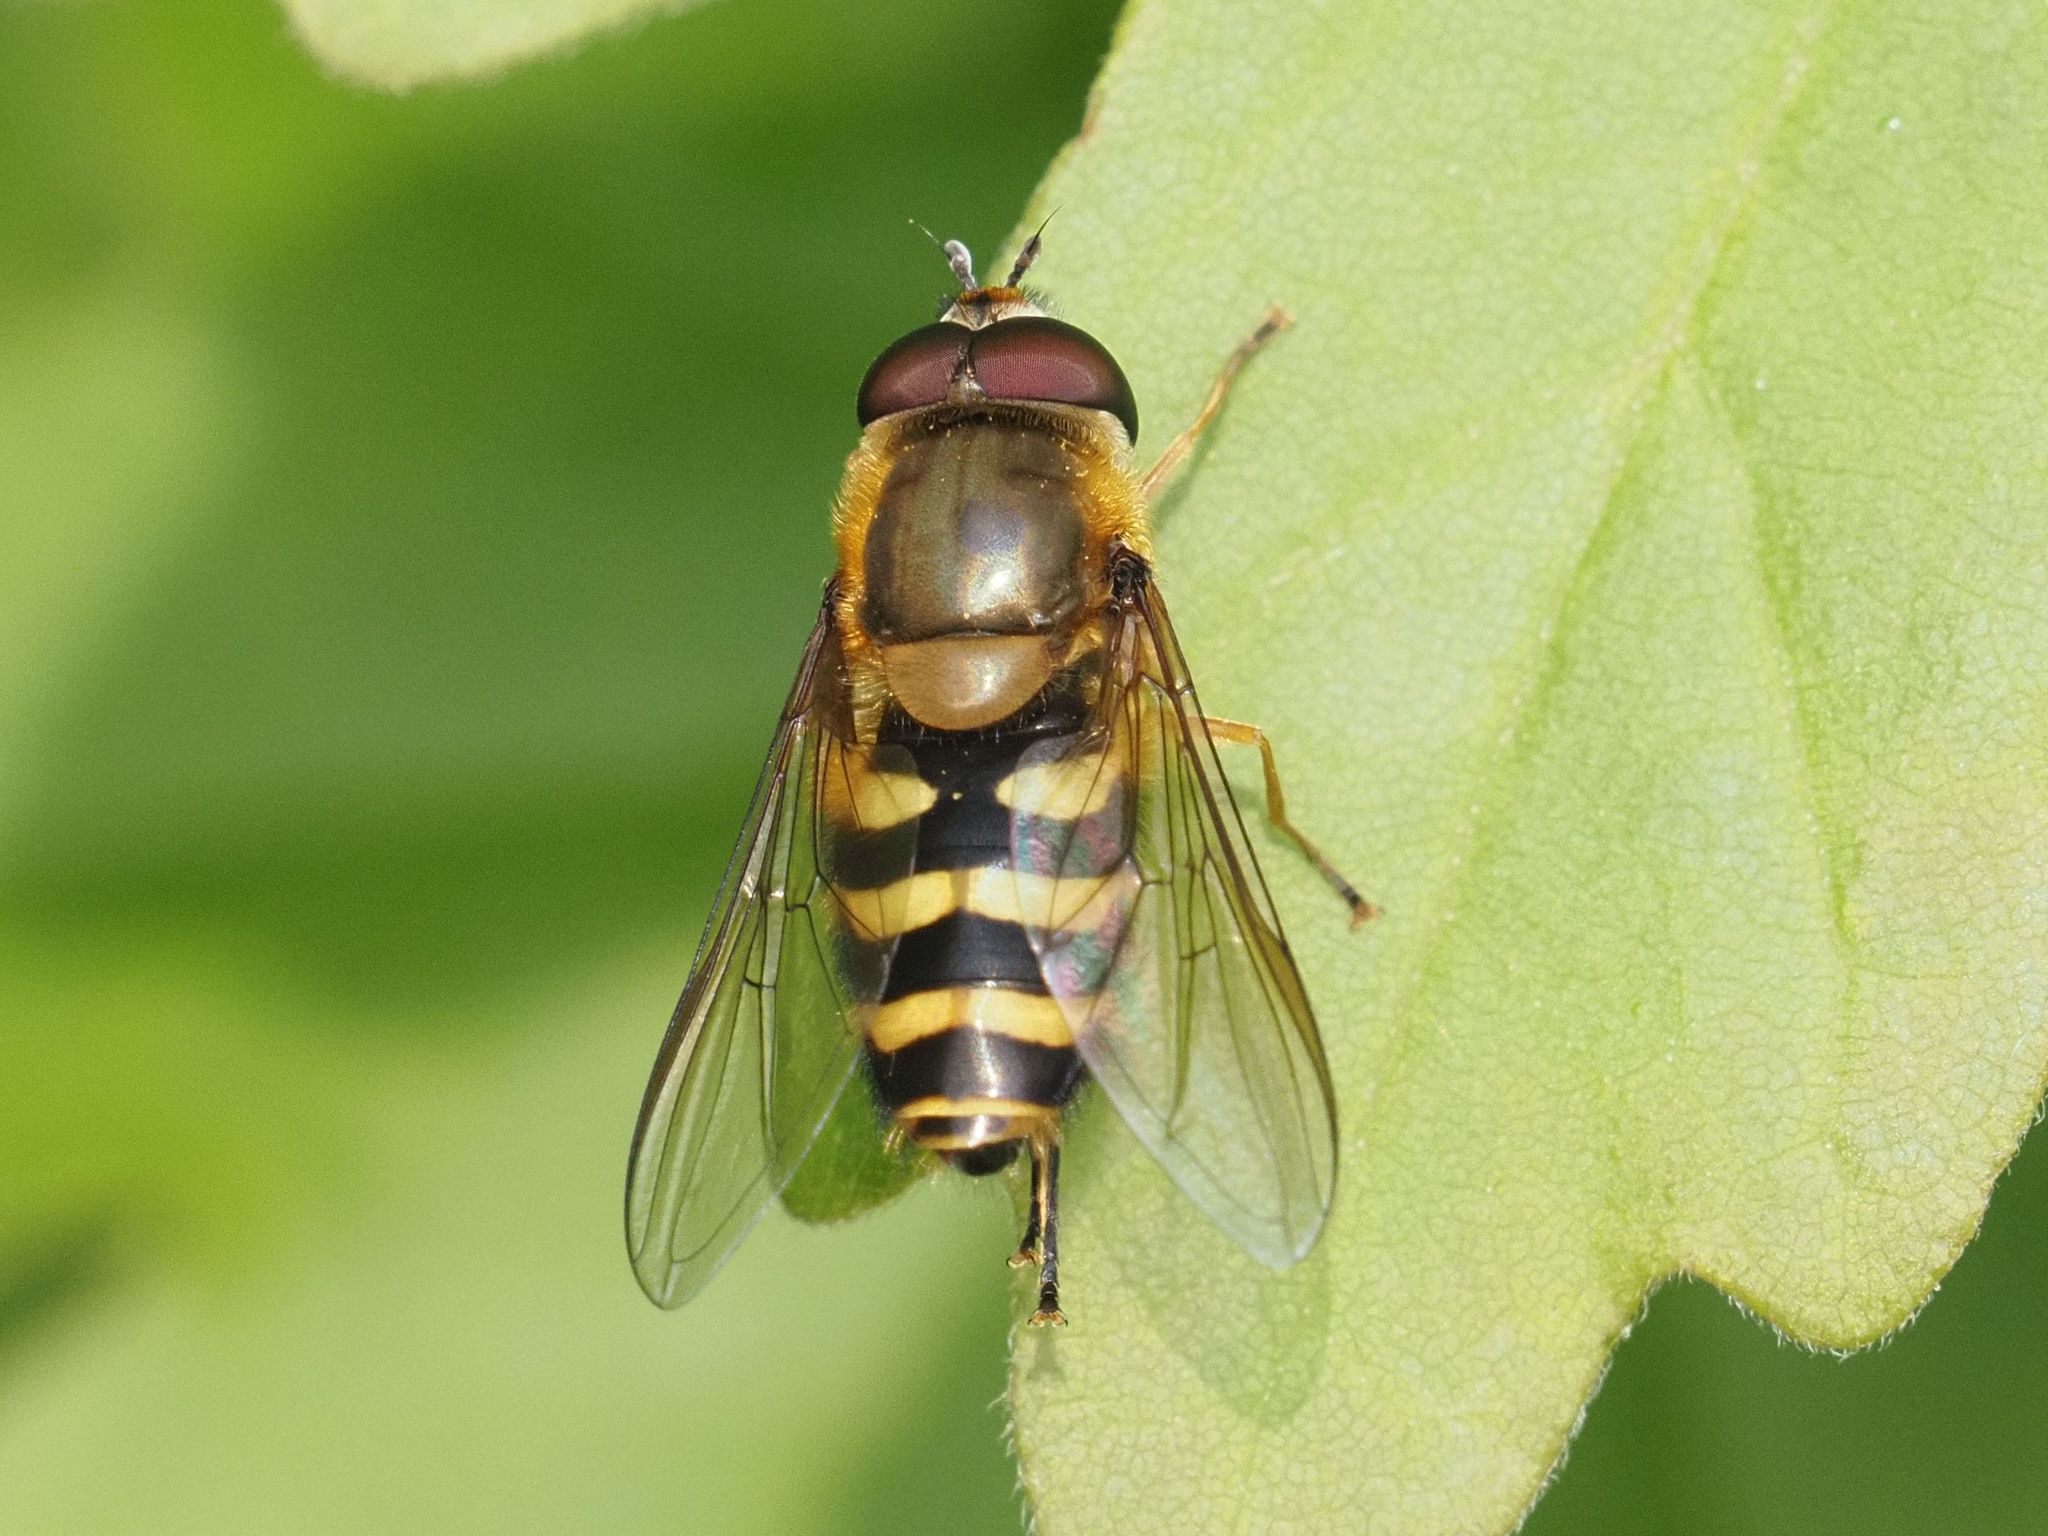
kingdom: Animalia
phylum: Arthropoda
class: Insecta
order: Diptera
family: Syrphidae
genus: Syrphus
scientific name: Syrphus
